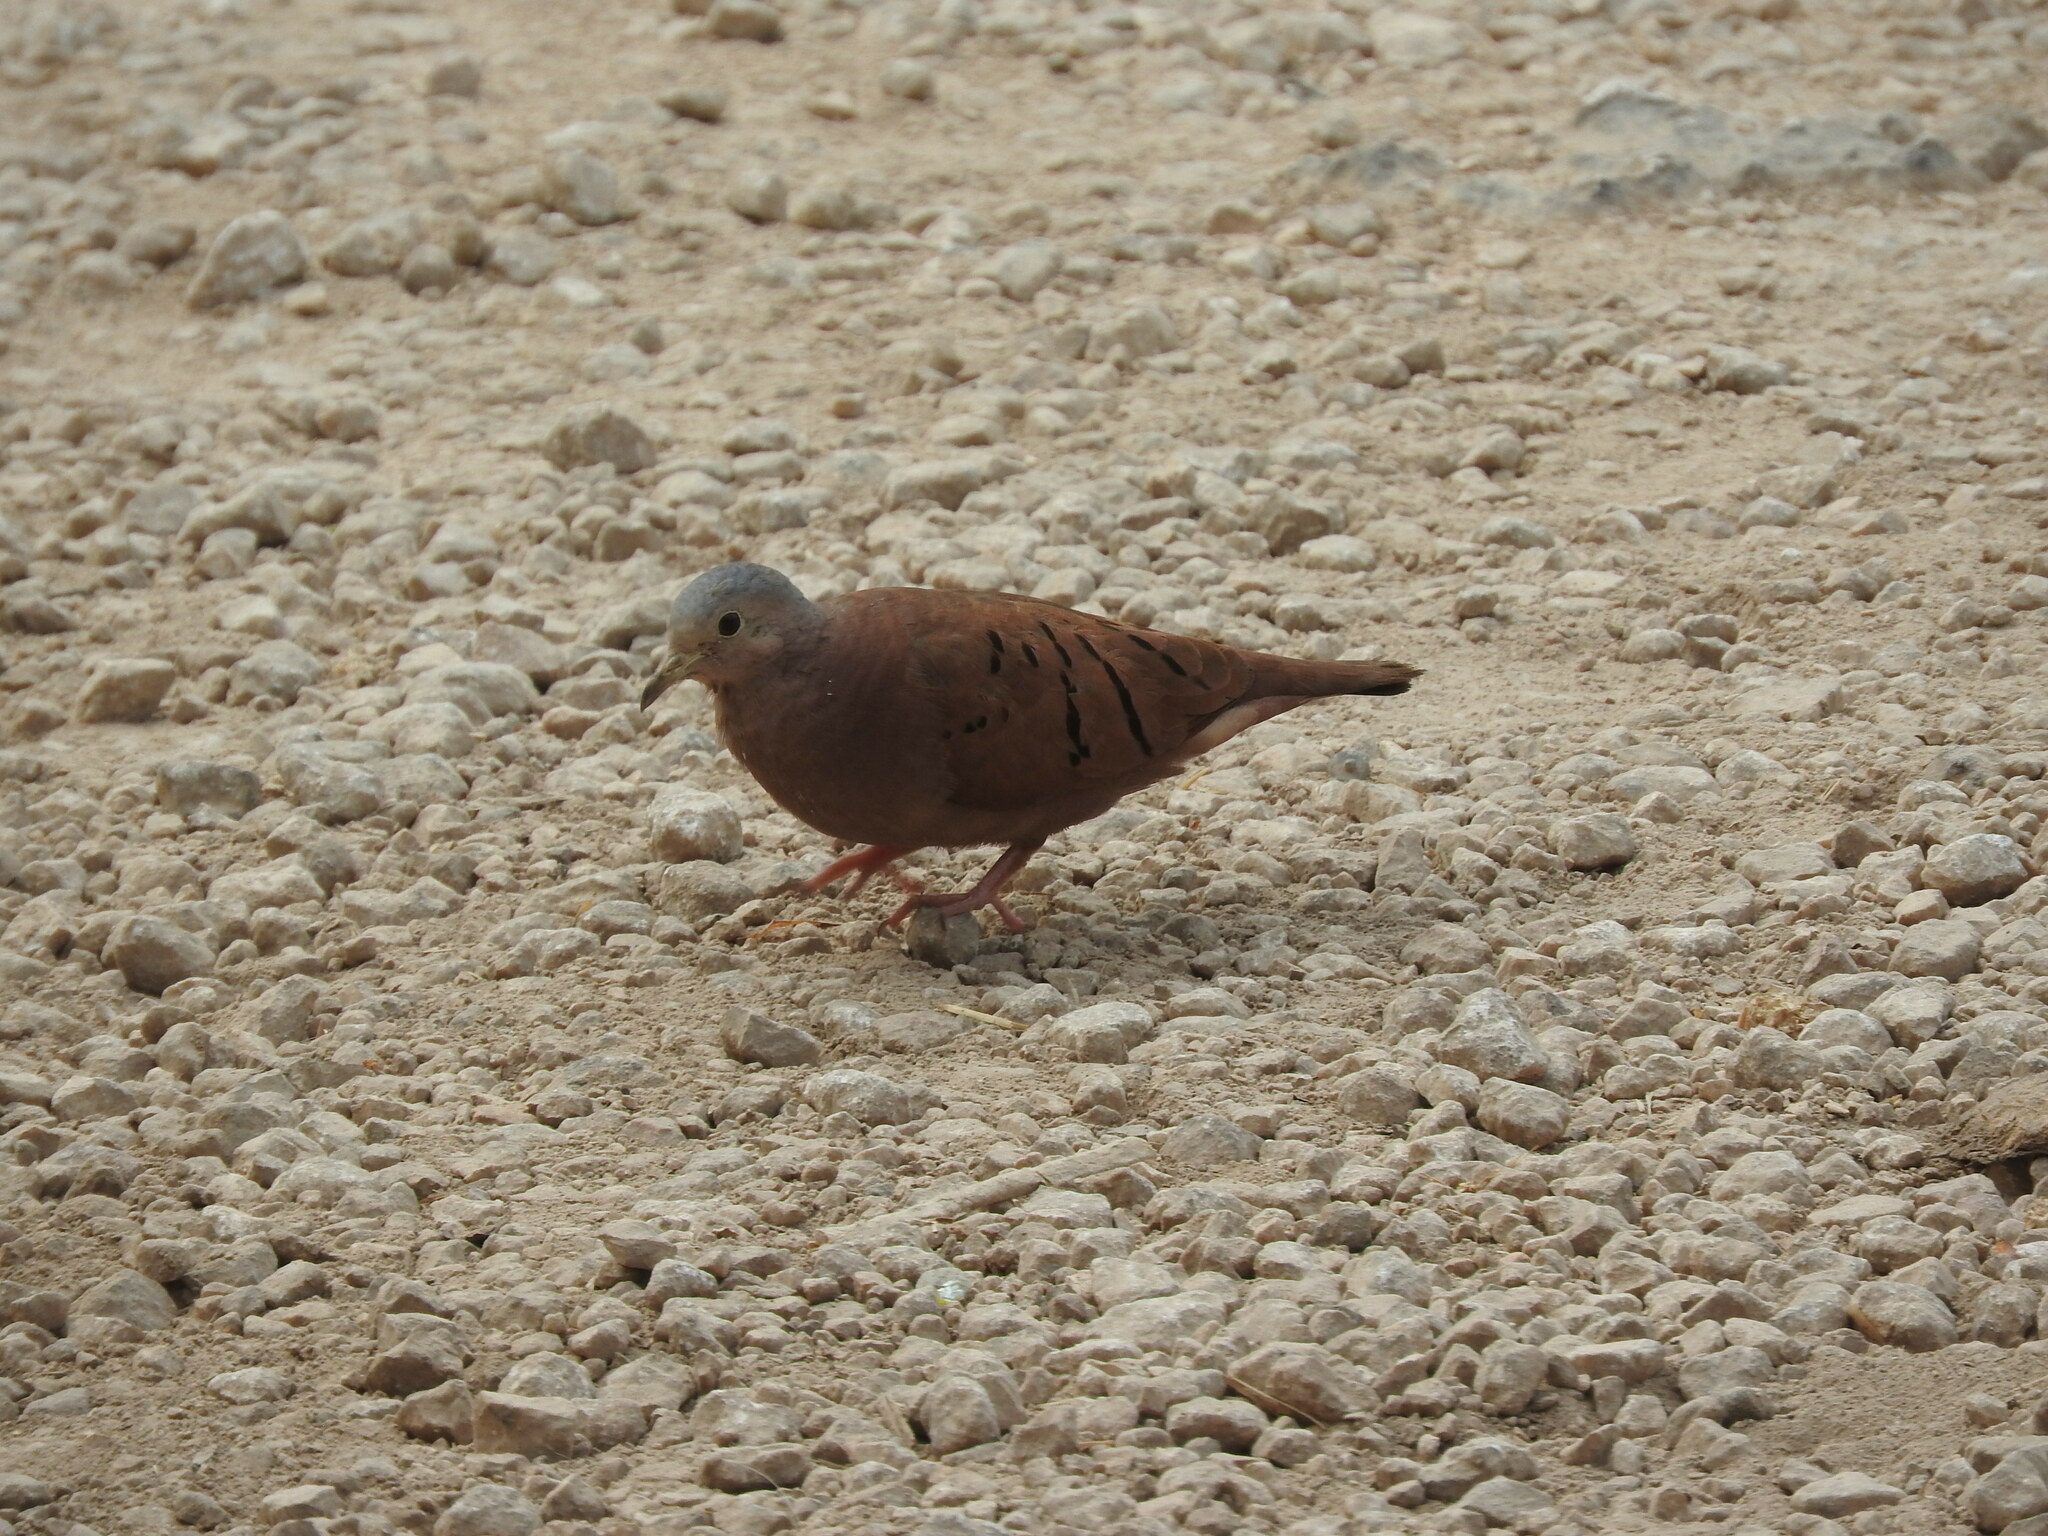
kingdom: Animalia
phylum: Chordata
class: Aves
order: Columbiformes
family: Columbidae
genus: Columbina
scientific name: Columbina talpacoti
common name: Ruddy ground dove
